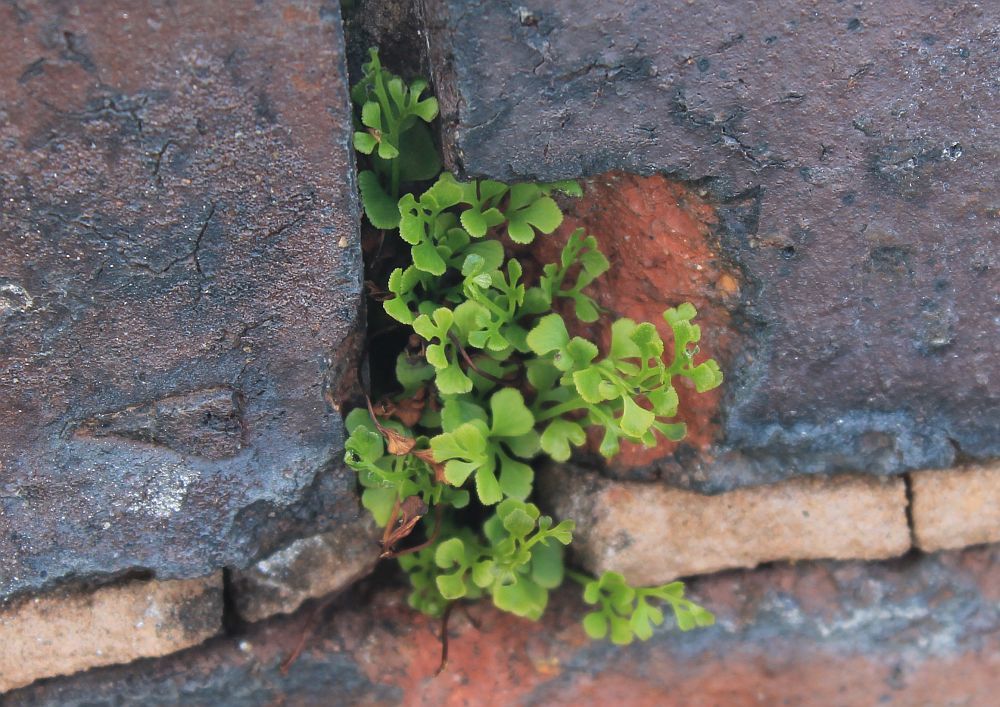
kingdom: Plantae
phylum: Tracheophyta
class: Polypodiopsida
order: Polypodiales
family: Aspleniaceae
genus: Asplenium
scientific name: Asplenium ruta-muraria
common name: Wall-rue
